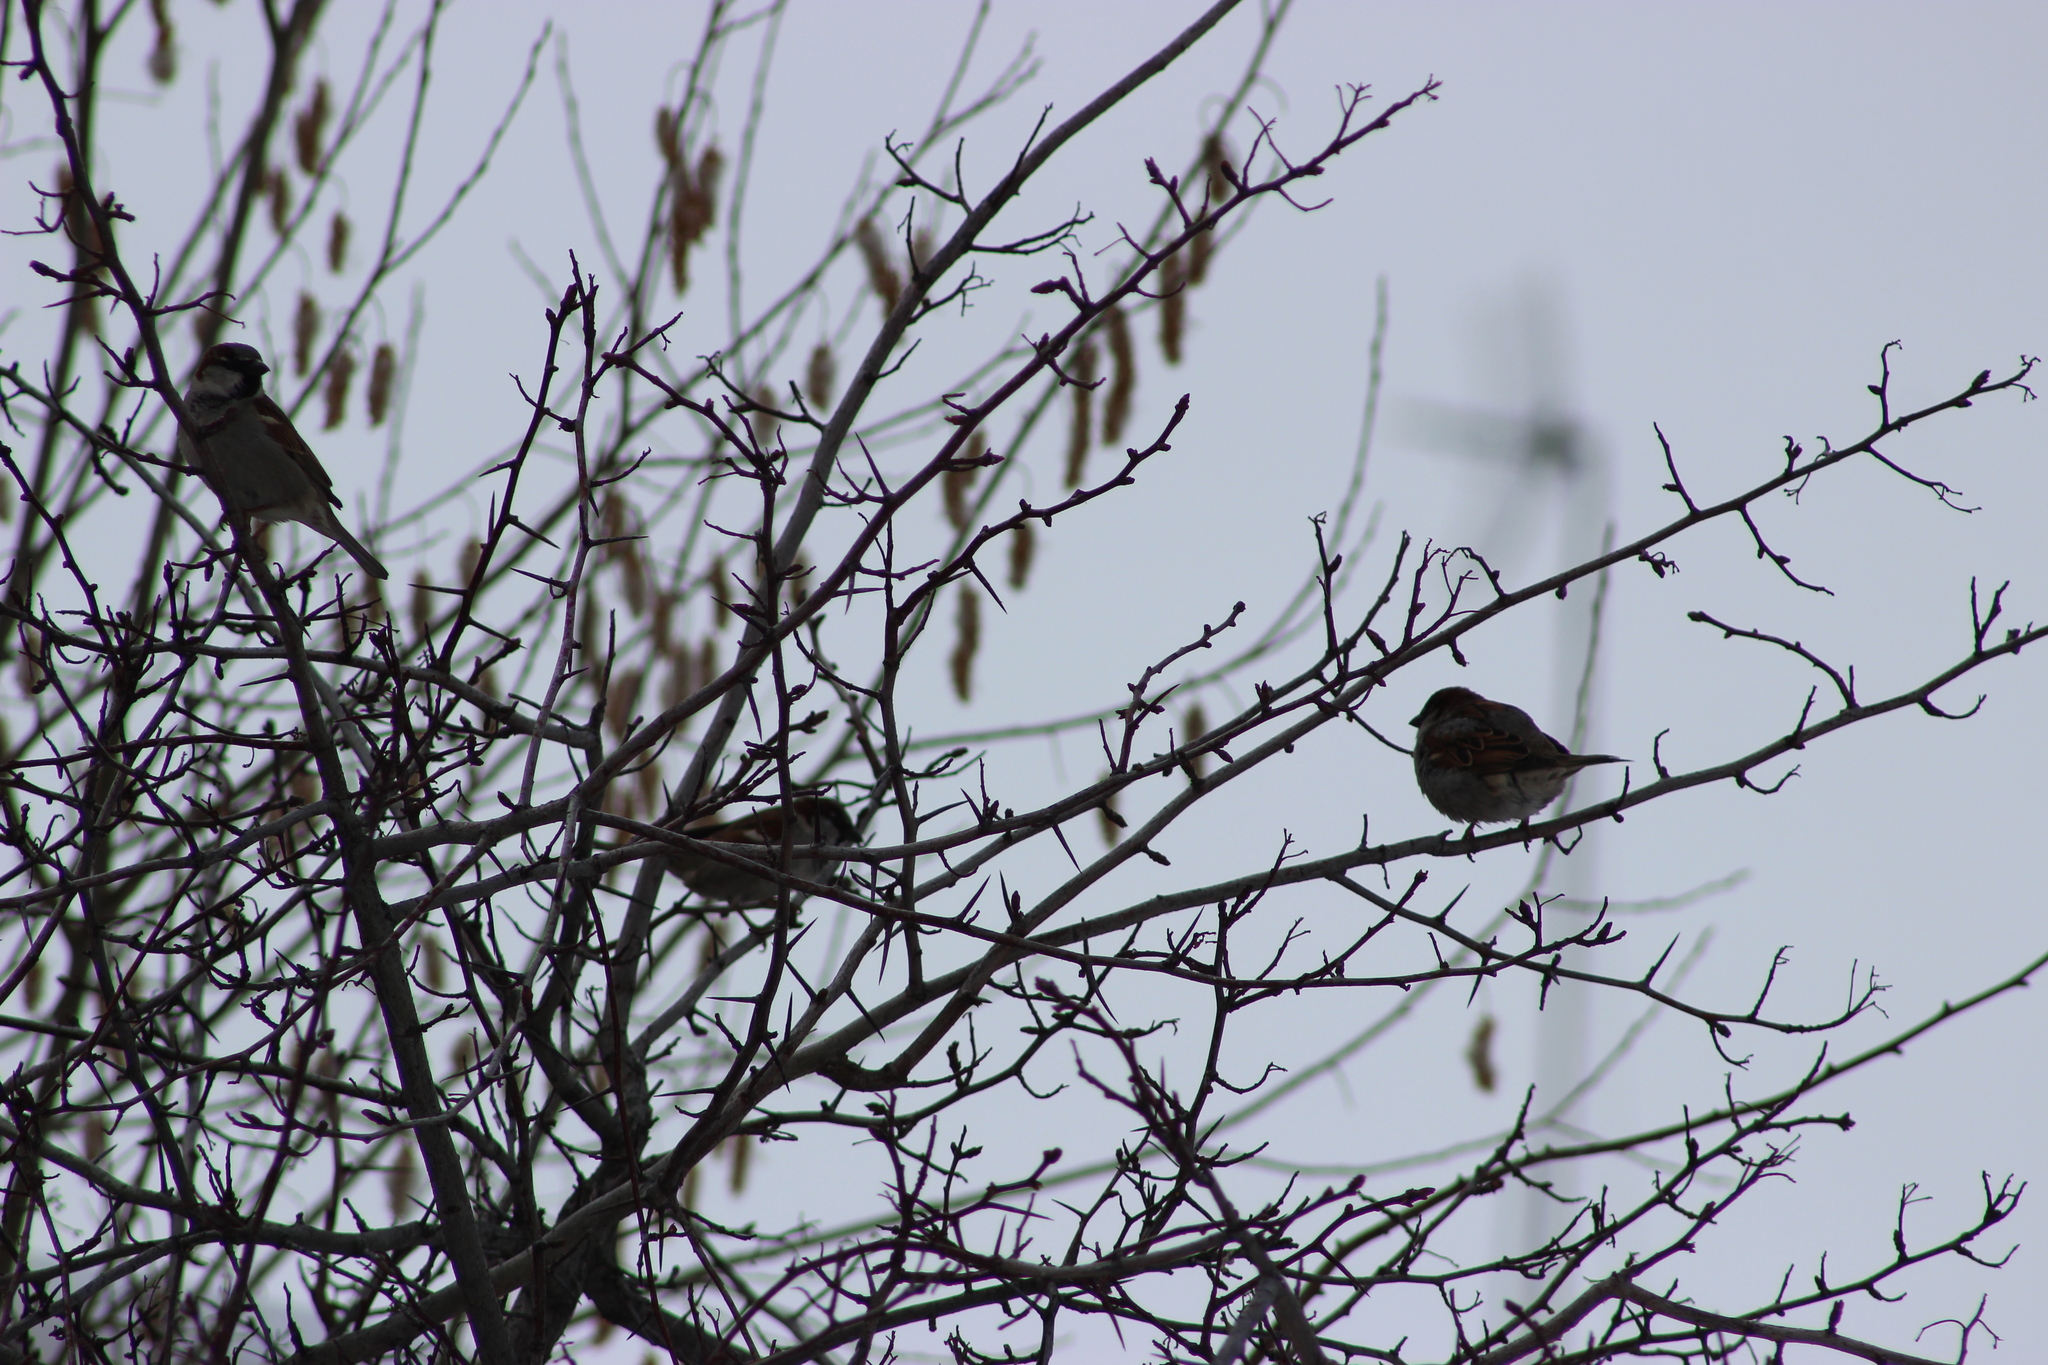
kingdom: Animalia
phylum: Chordata
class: Aves
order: Passeriformes
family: Passeridae
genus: Passer
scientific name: Passer domesticus
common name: House sparrow
